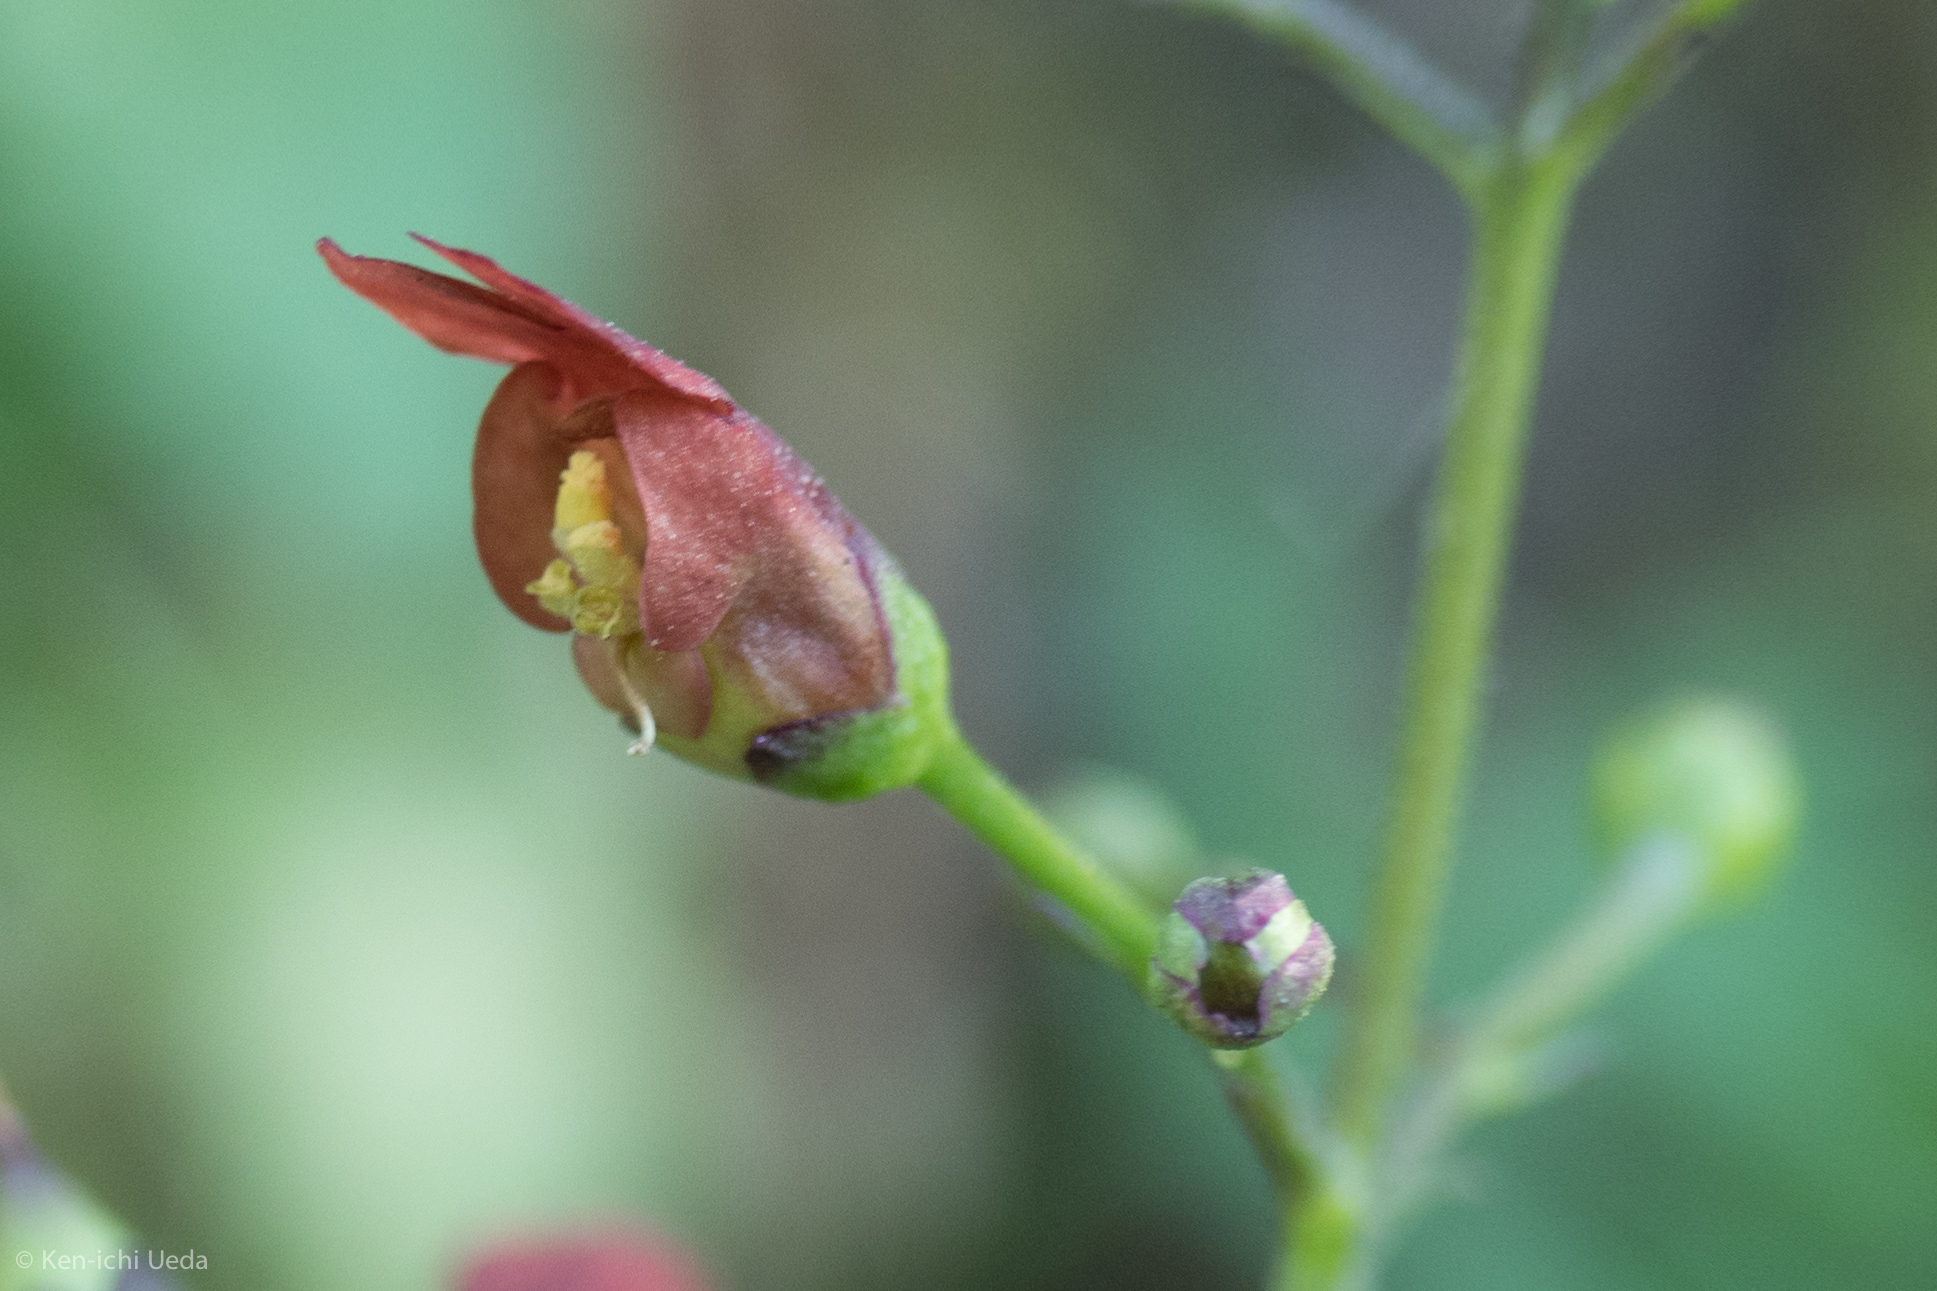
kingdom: Plantae
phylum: Tracheophyta
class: Magnoliopsida
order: Lamiales
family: Scrophulariaceae
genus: Scrophularia
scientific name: Scrophularia californica
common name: California figwort
